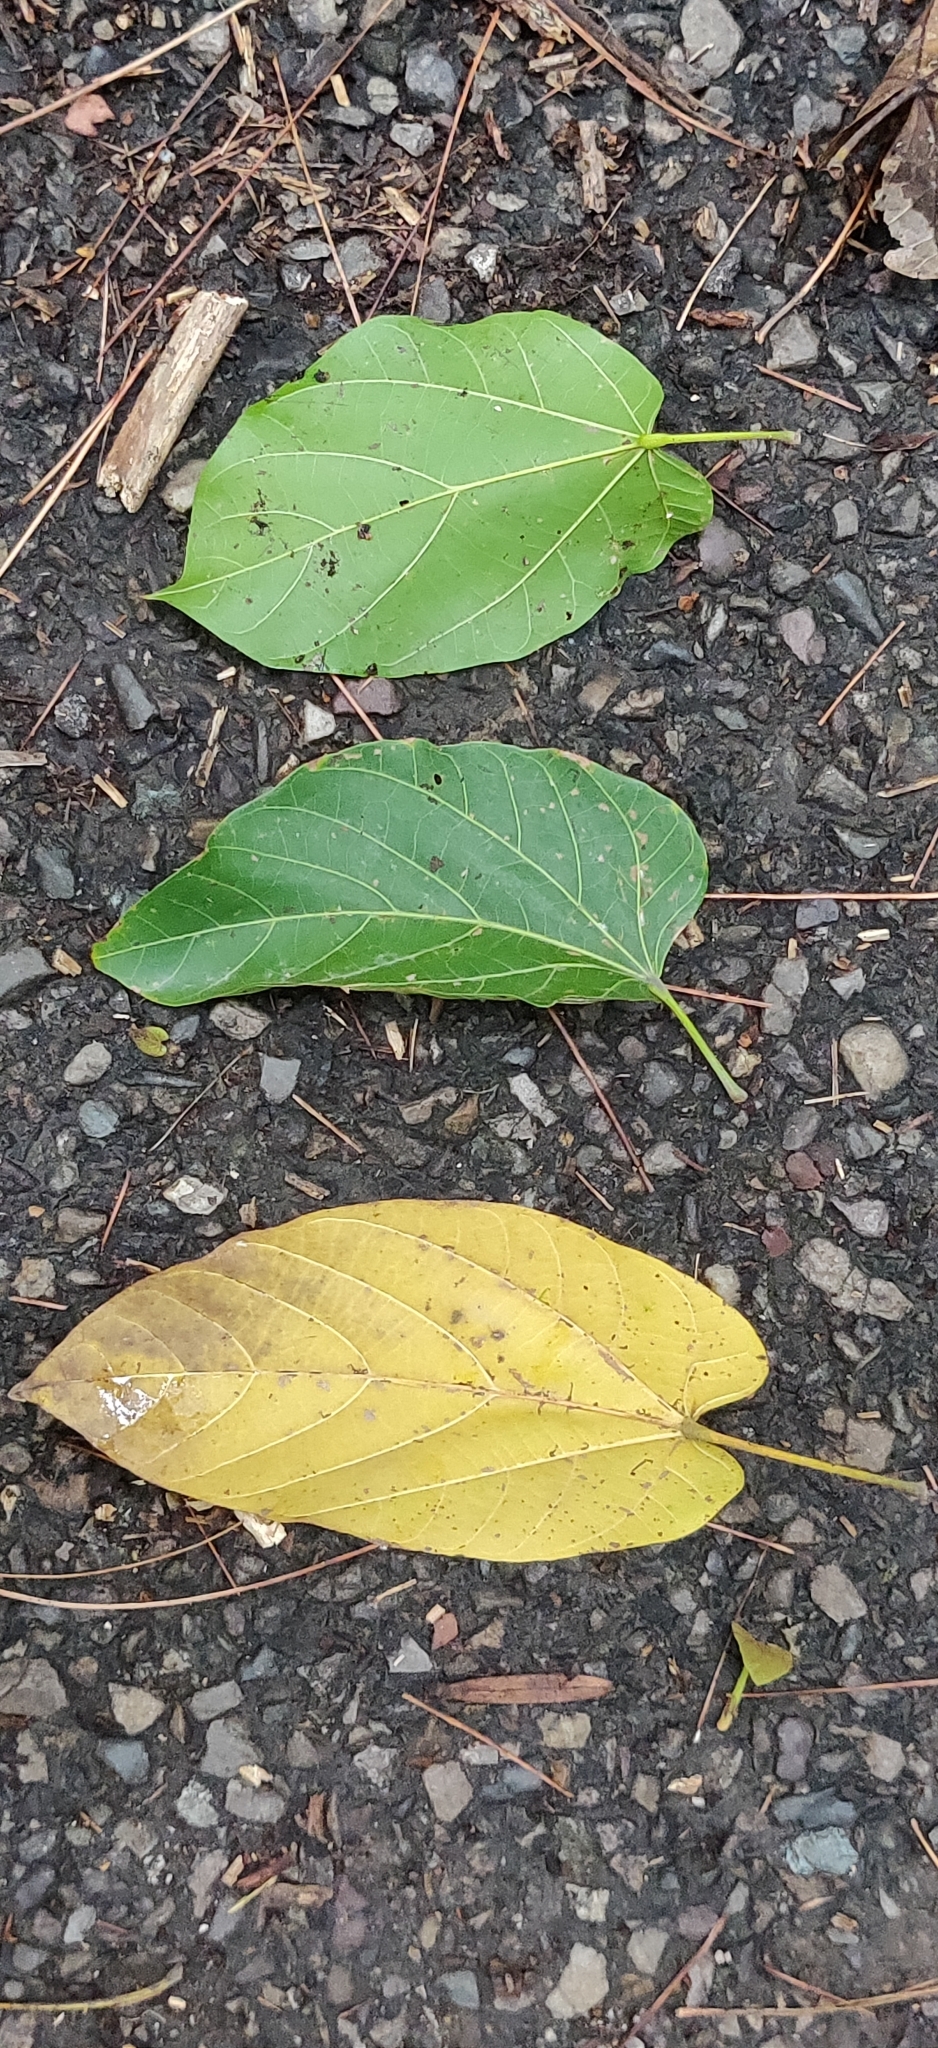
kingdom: Plantae
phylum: Tracheophyta
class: Magnoliopsida
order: Malvales
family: Malvaceae
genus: Pterygota
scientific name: Pterygota alata
